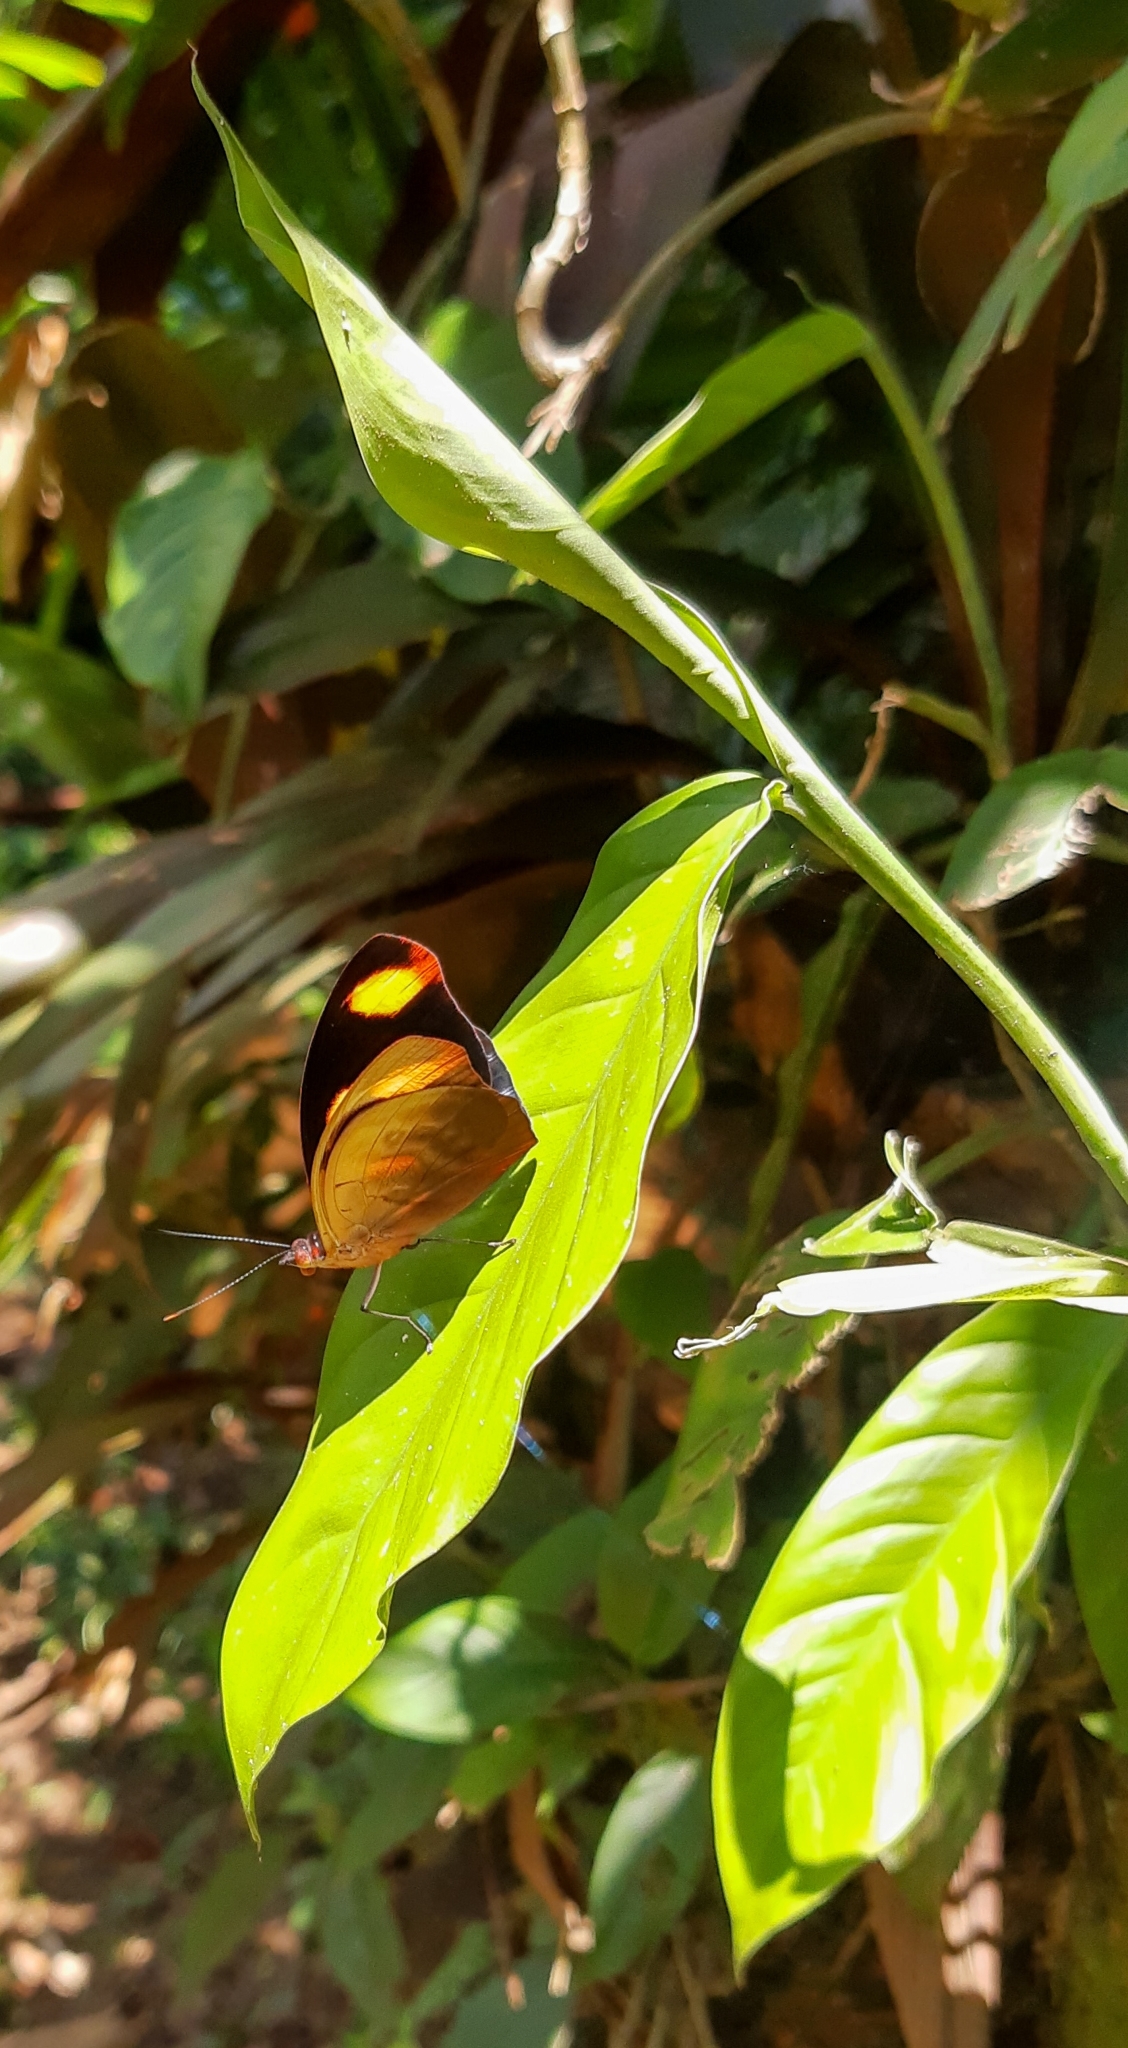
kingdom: Animalia
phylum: Arthropoda
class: Insecta
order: Lepidoptera
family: Nymphalidae
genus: Catonephele
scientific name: Catonephele numilia
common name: Blue-frosted banner
